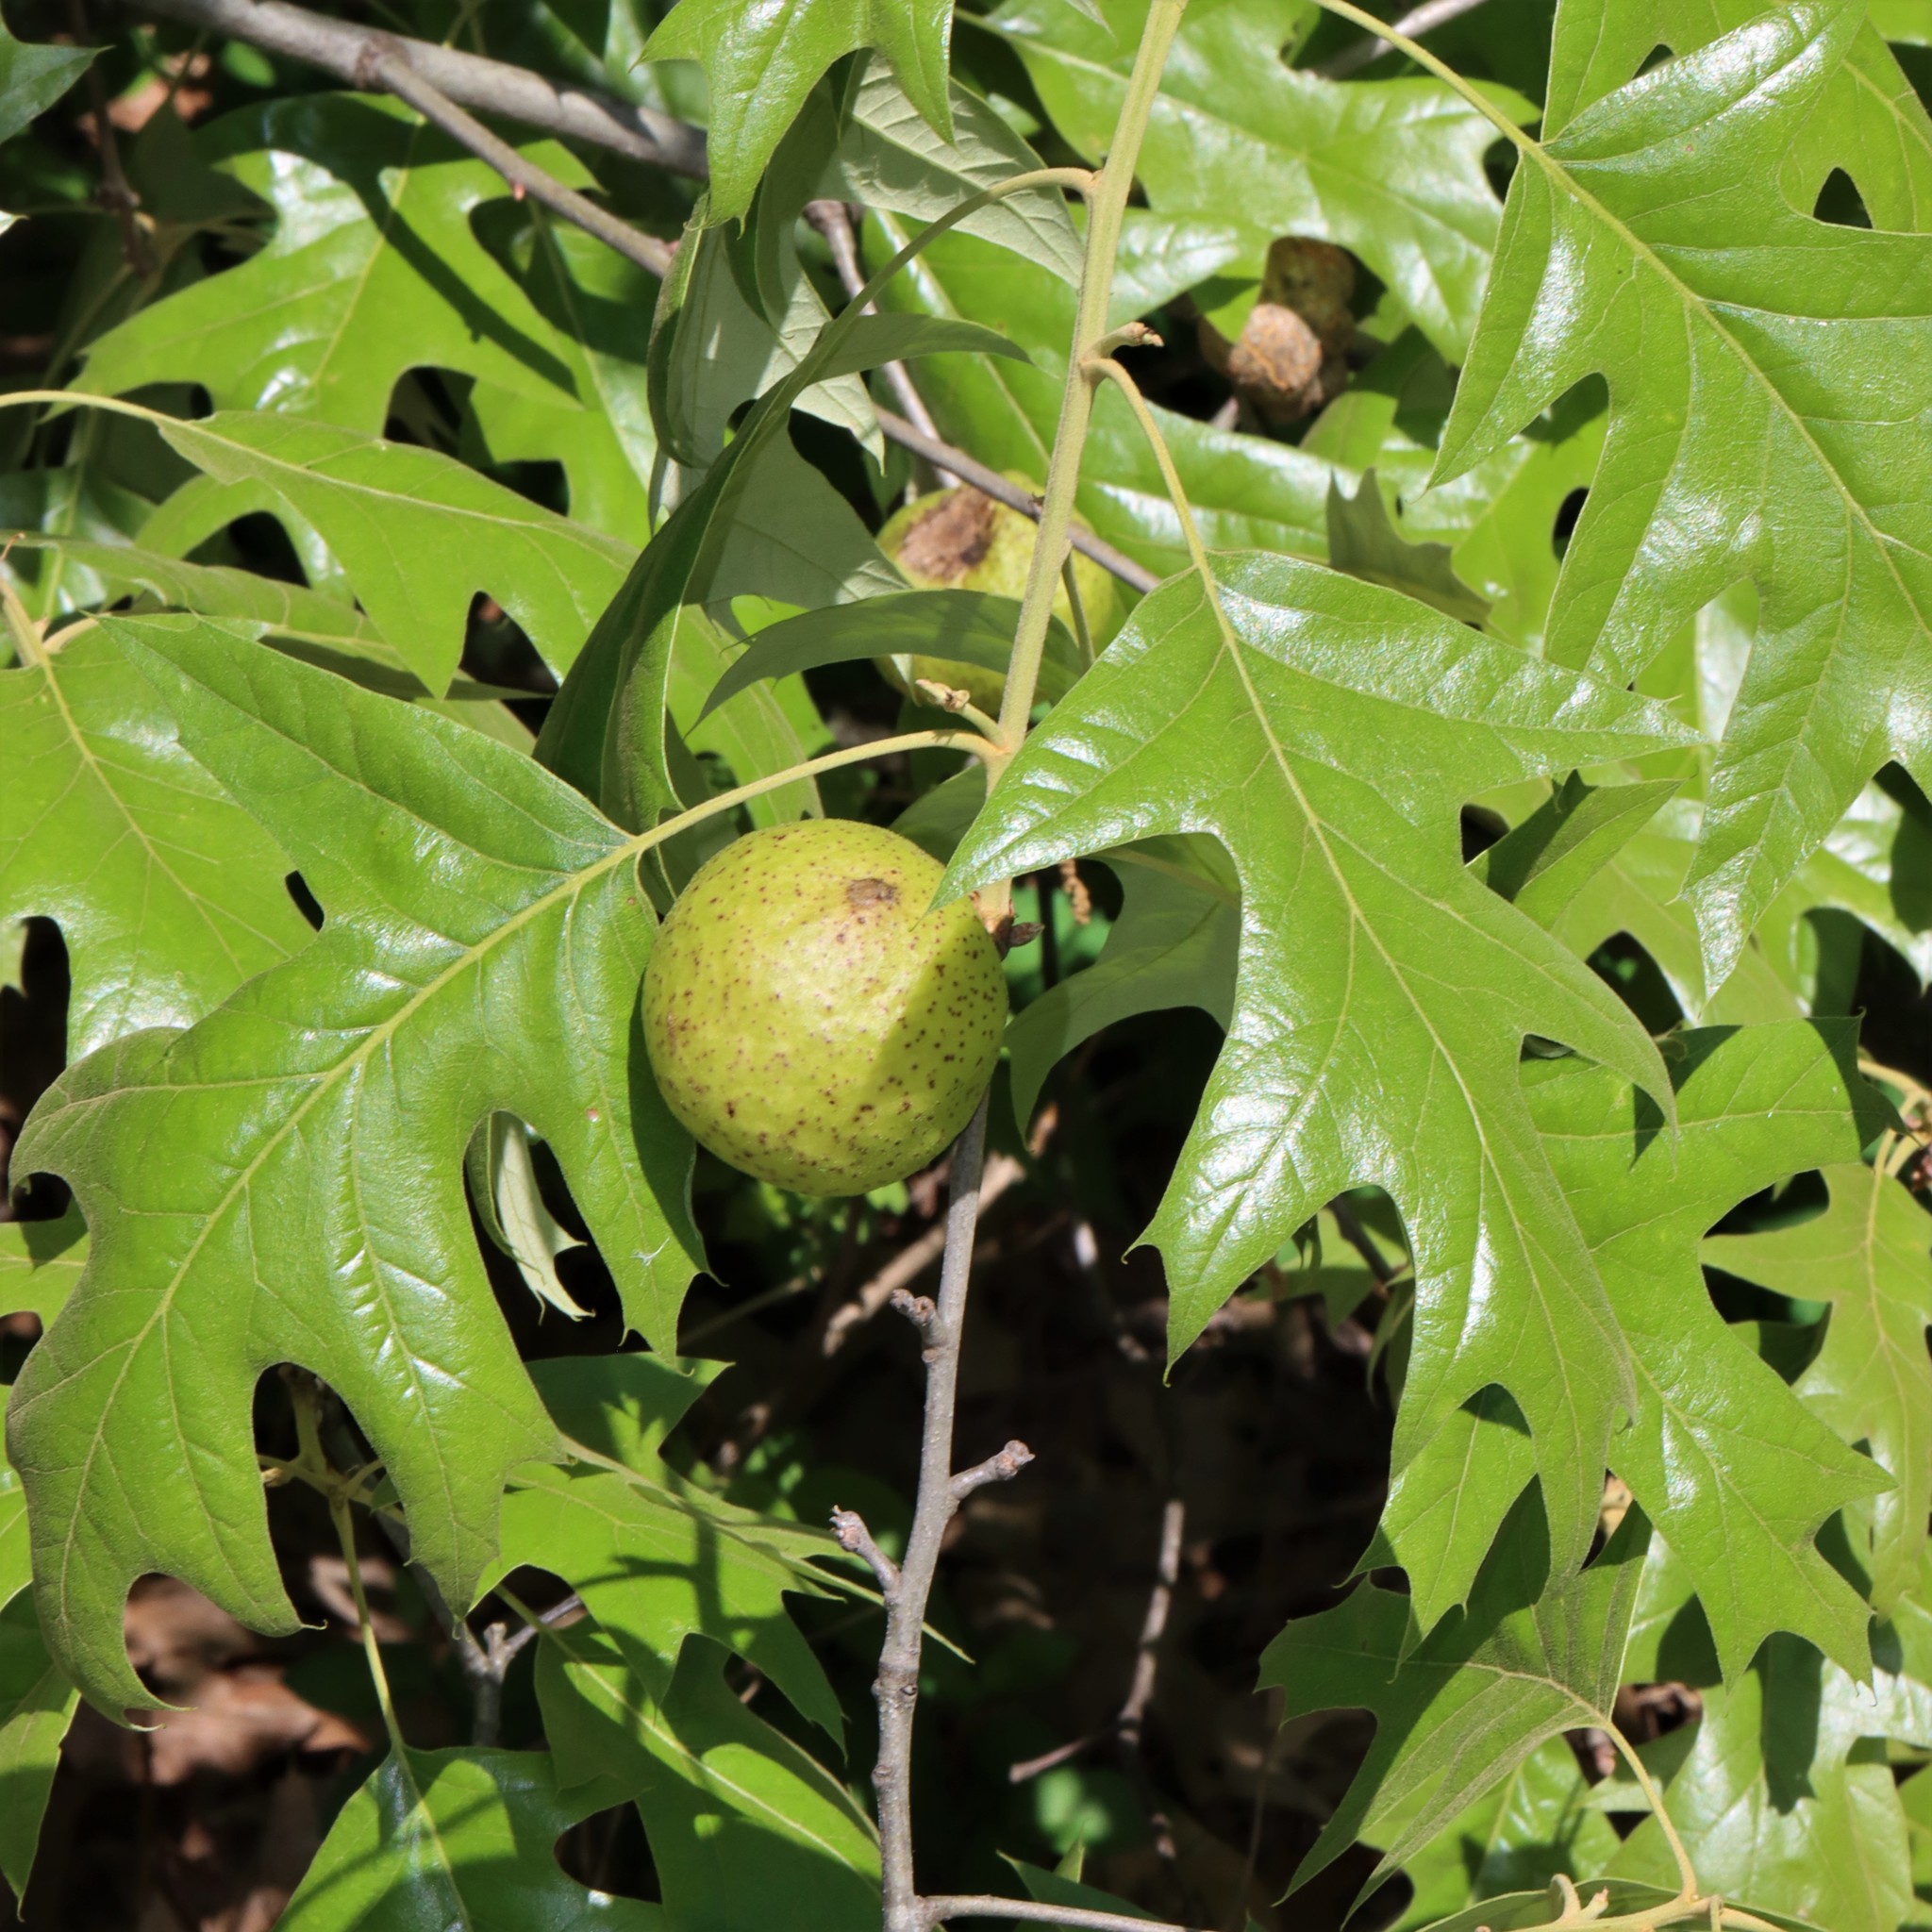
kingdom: Animalia
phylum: Arthropoda
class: Insecta
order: Hymenoptera
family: Cynipidae
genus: Amphibolips
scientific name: Amphibolips
